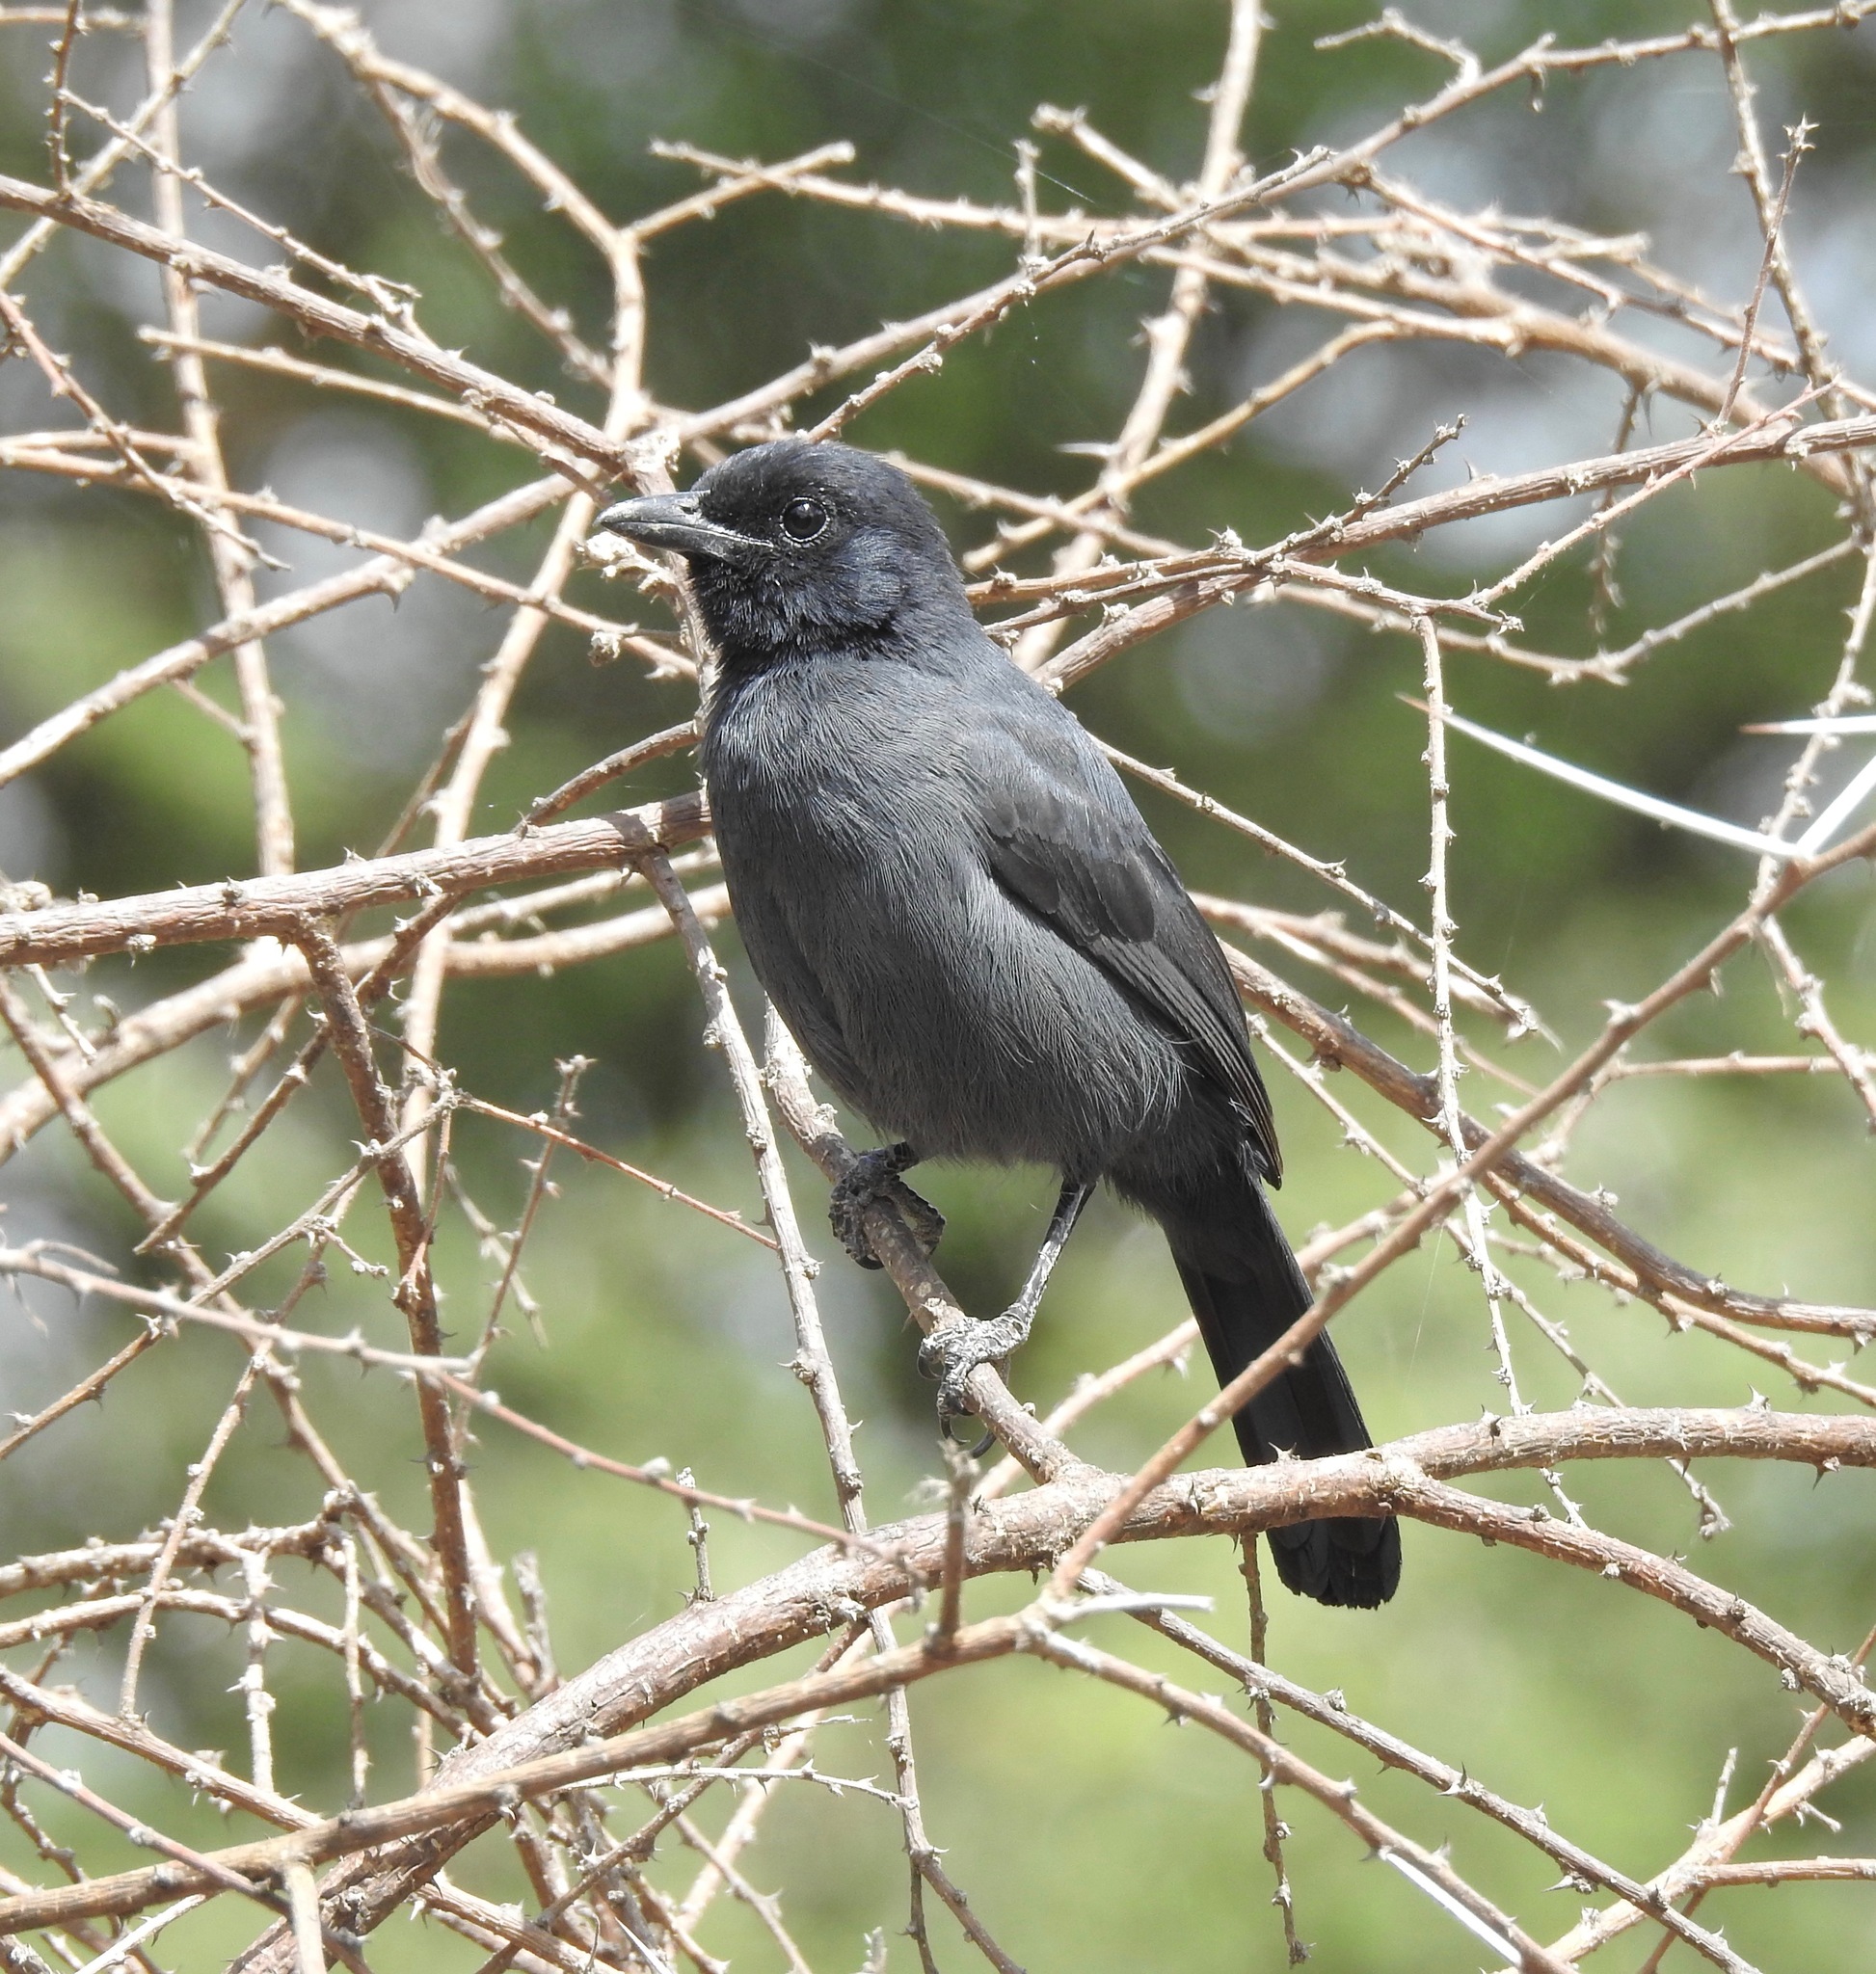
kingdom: Animalia
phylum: Chordata
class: Aves
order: Passeriformes
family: Malaconotidae
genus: Laniarius
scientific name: Laniarius funebris
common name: Slate-colored boubou
